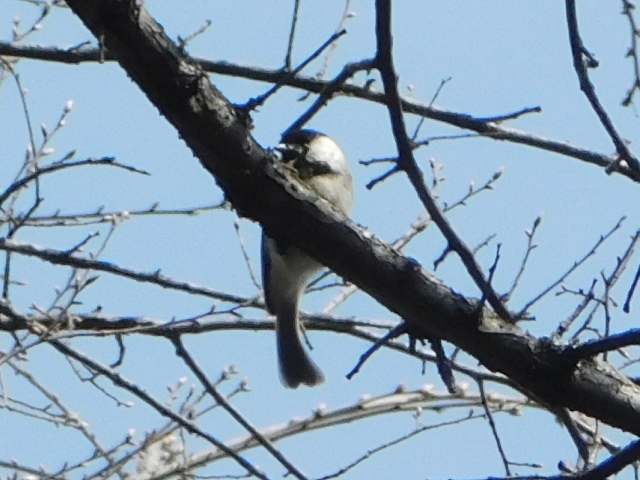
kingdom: Animalia
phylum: Chordata
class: Aves
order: Passeriformes
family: Paridae
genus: Poecile
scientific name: Poecile carolinensis
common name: Carolina chickadee
